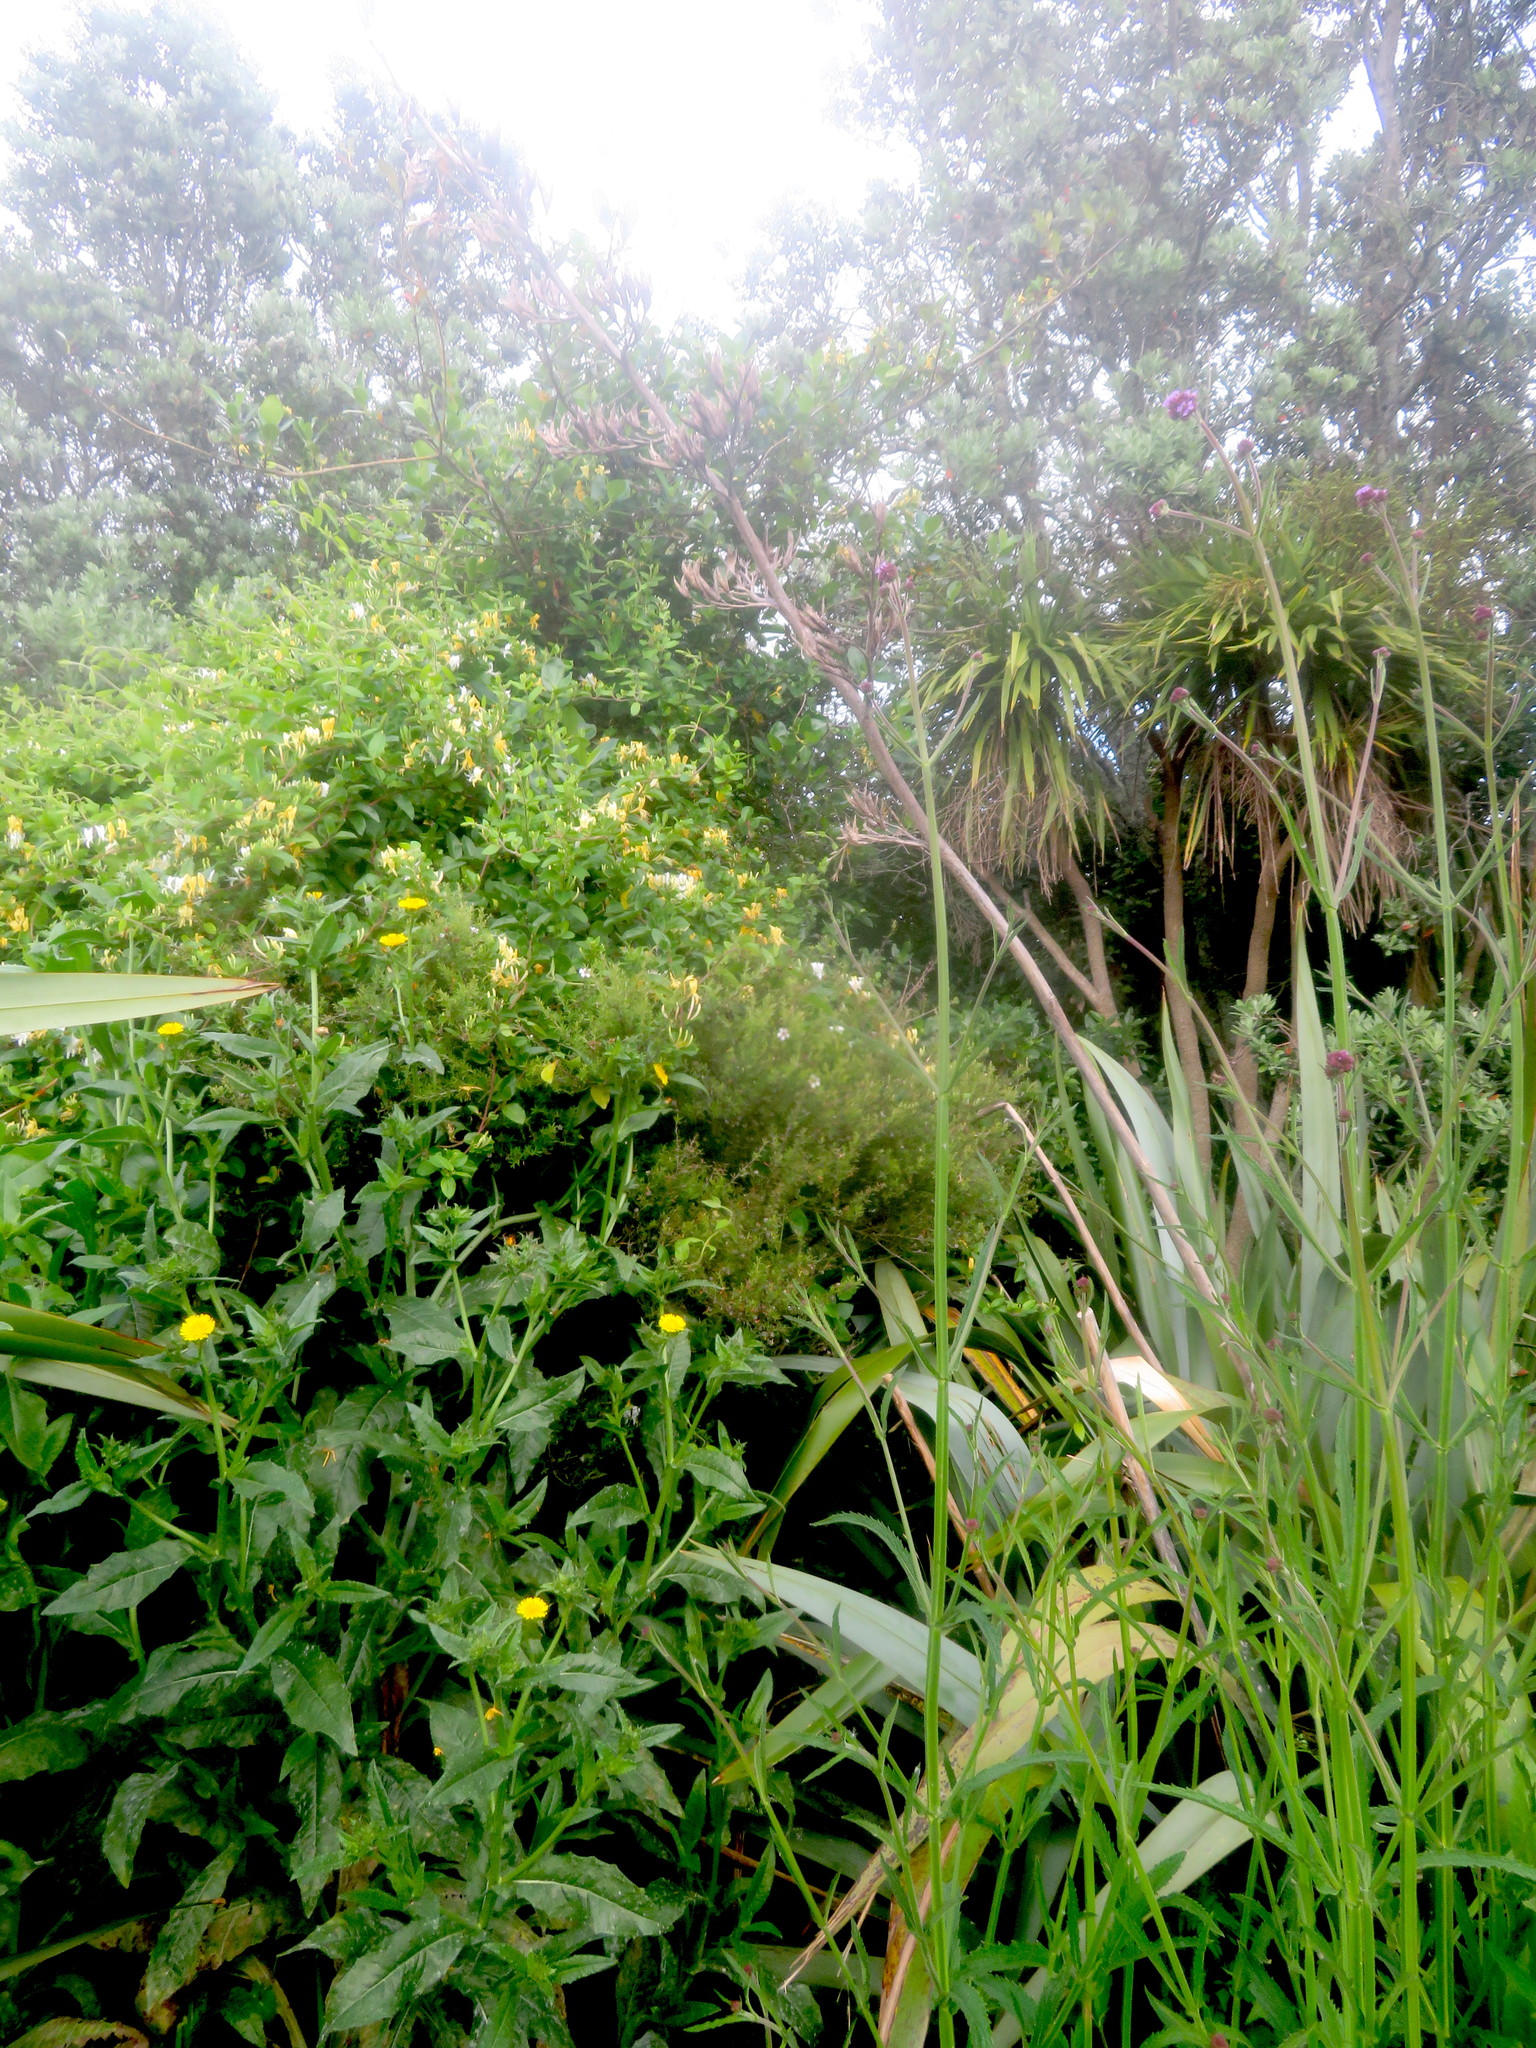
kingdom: Plantae
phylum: Tracheophyta
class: Magnoliopsida
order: Asterales
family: Asteraceae
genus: Helminthotheca
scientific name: Helminthotheca echioides
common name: Ox-tongue
